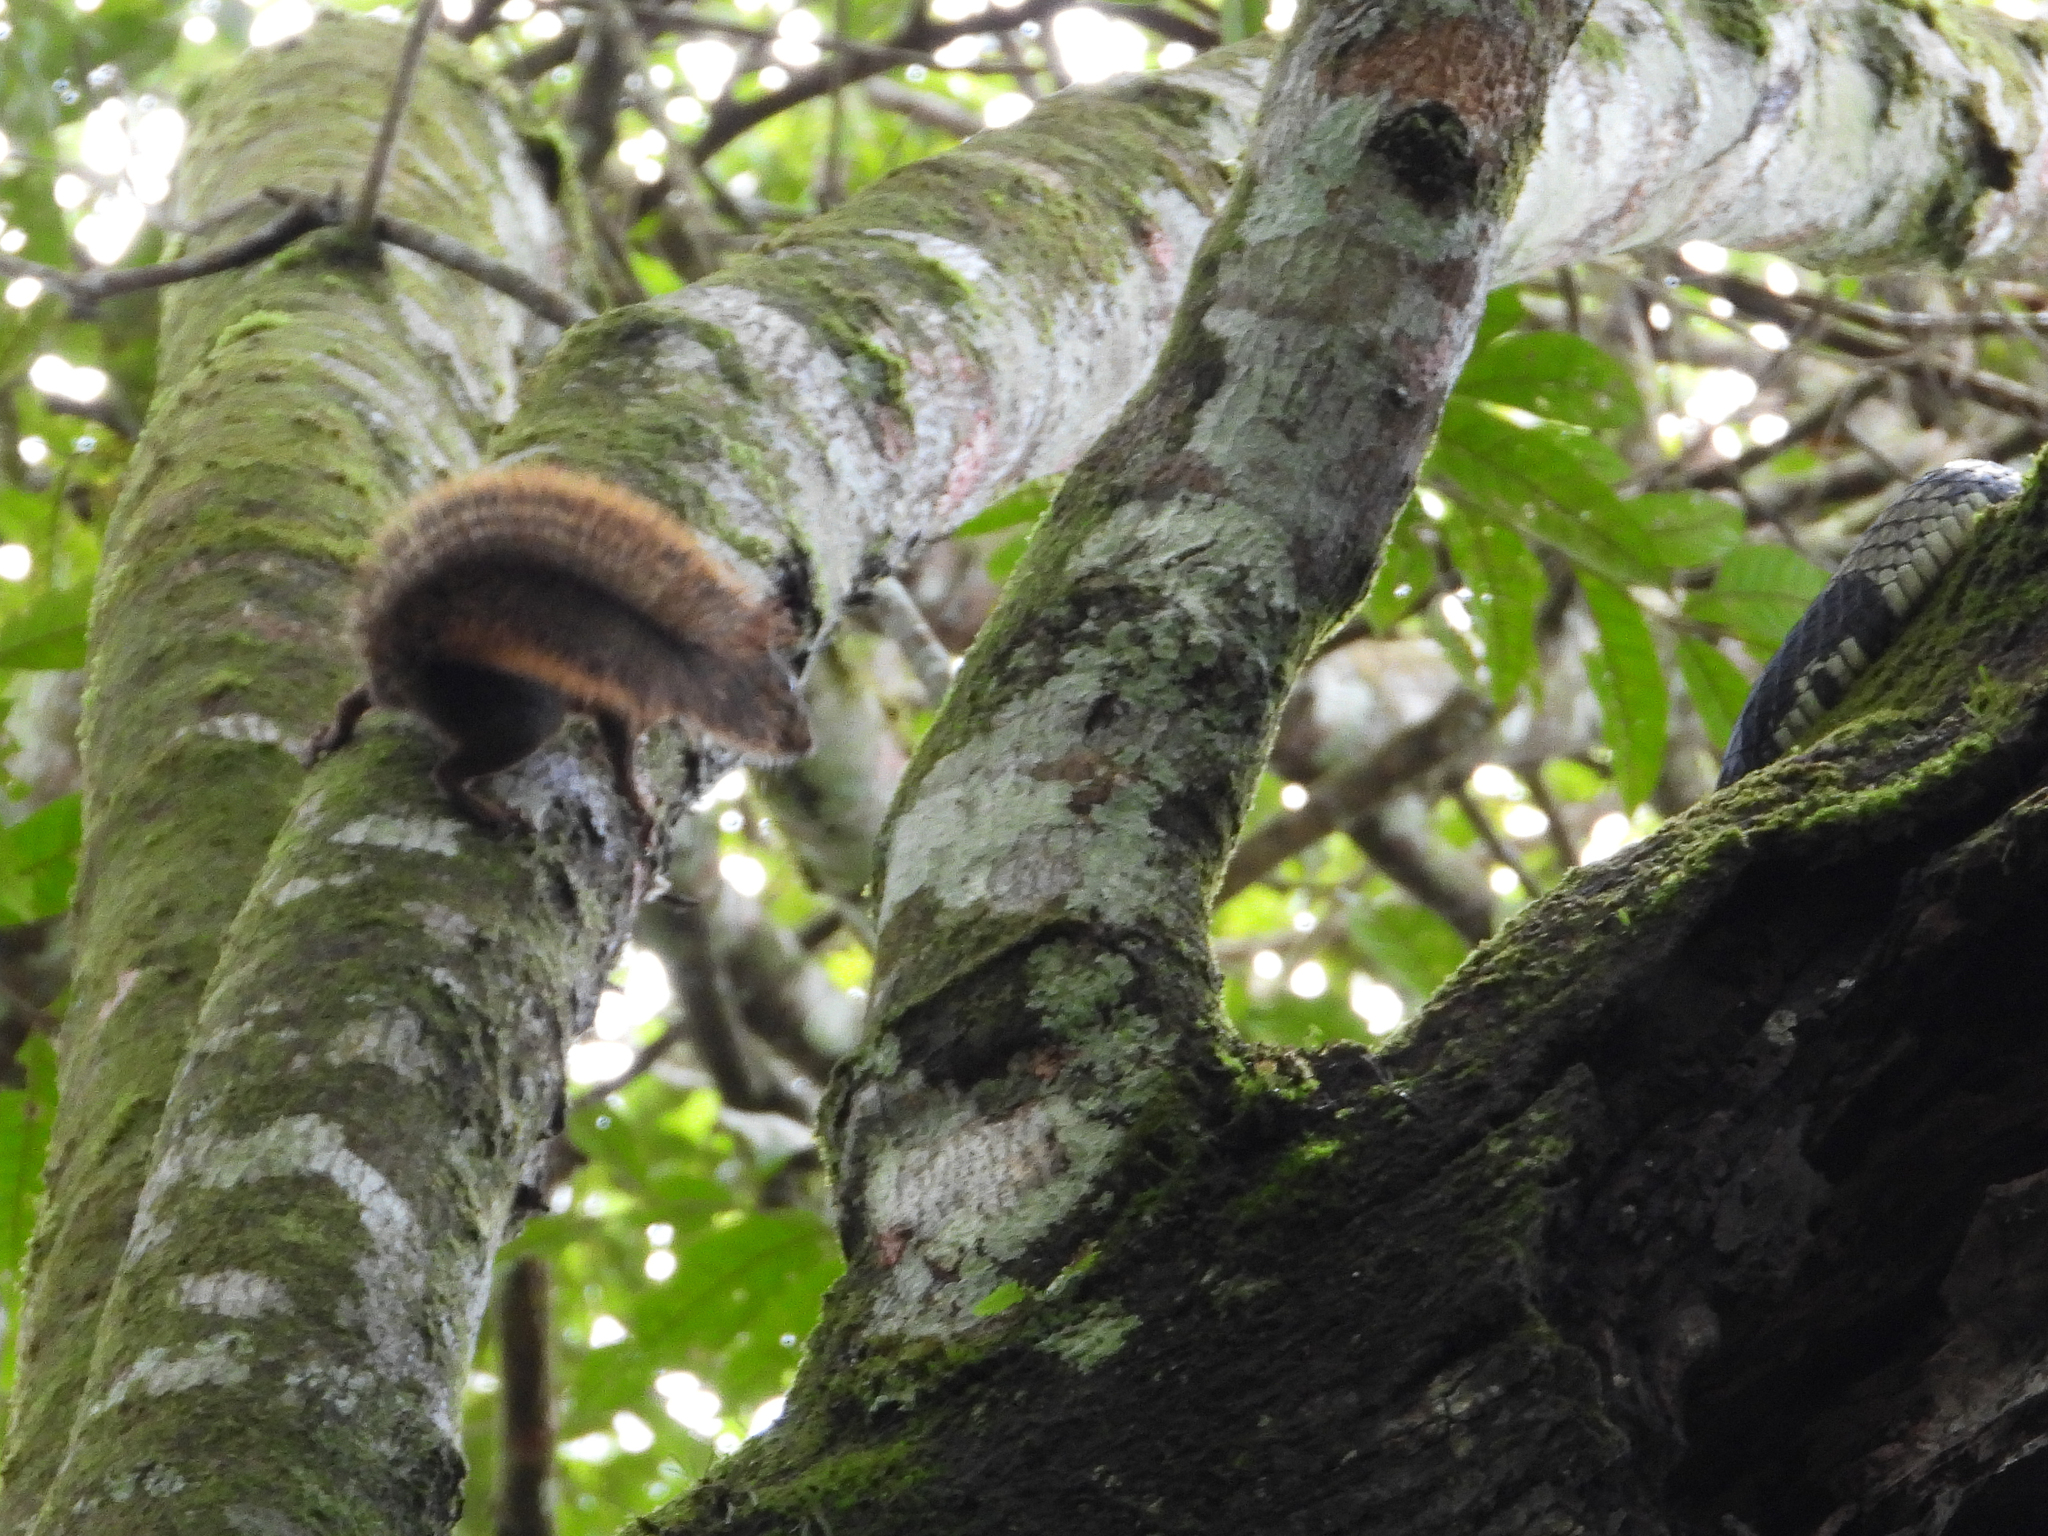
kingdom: Animalia
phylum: Chordata
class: Mammalia
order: Rodentia
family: Sciuridae
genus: Sciurus
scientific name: Sciurus granatensis
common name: Red-tailed squirrel
